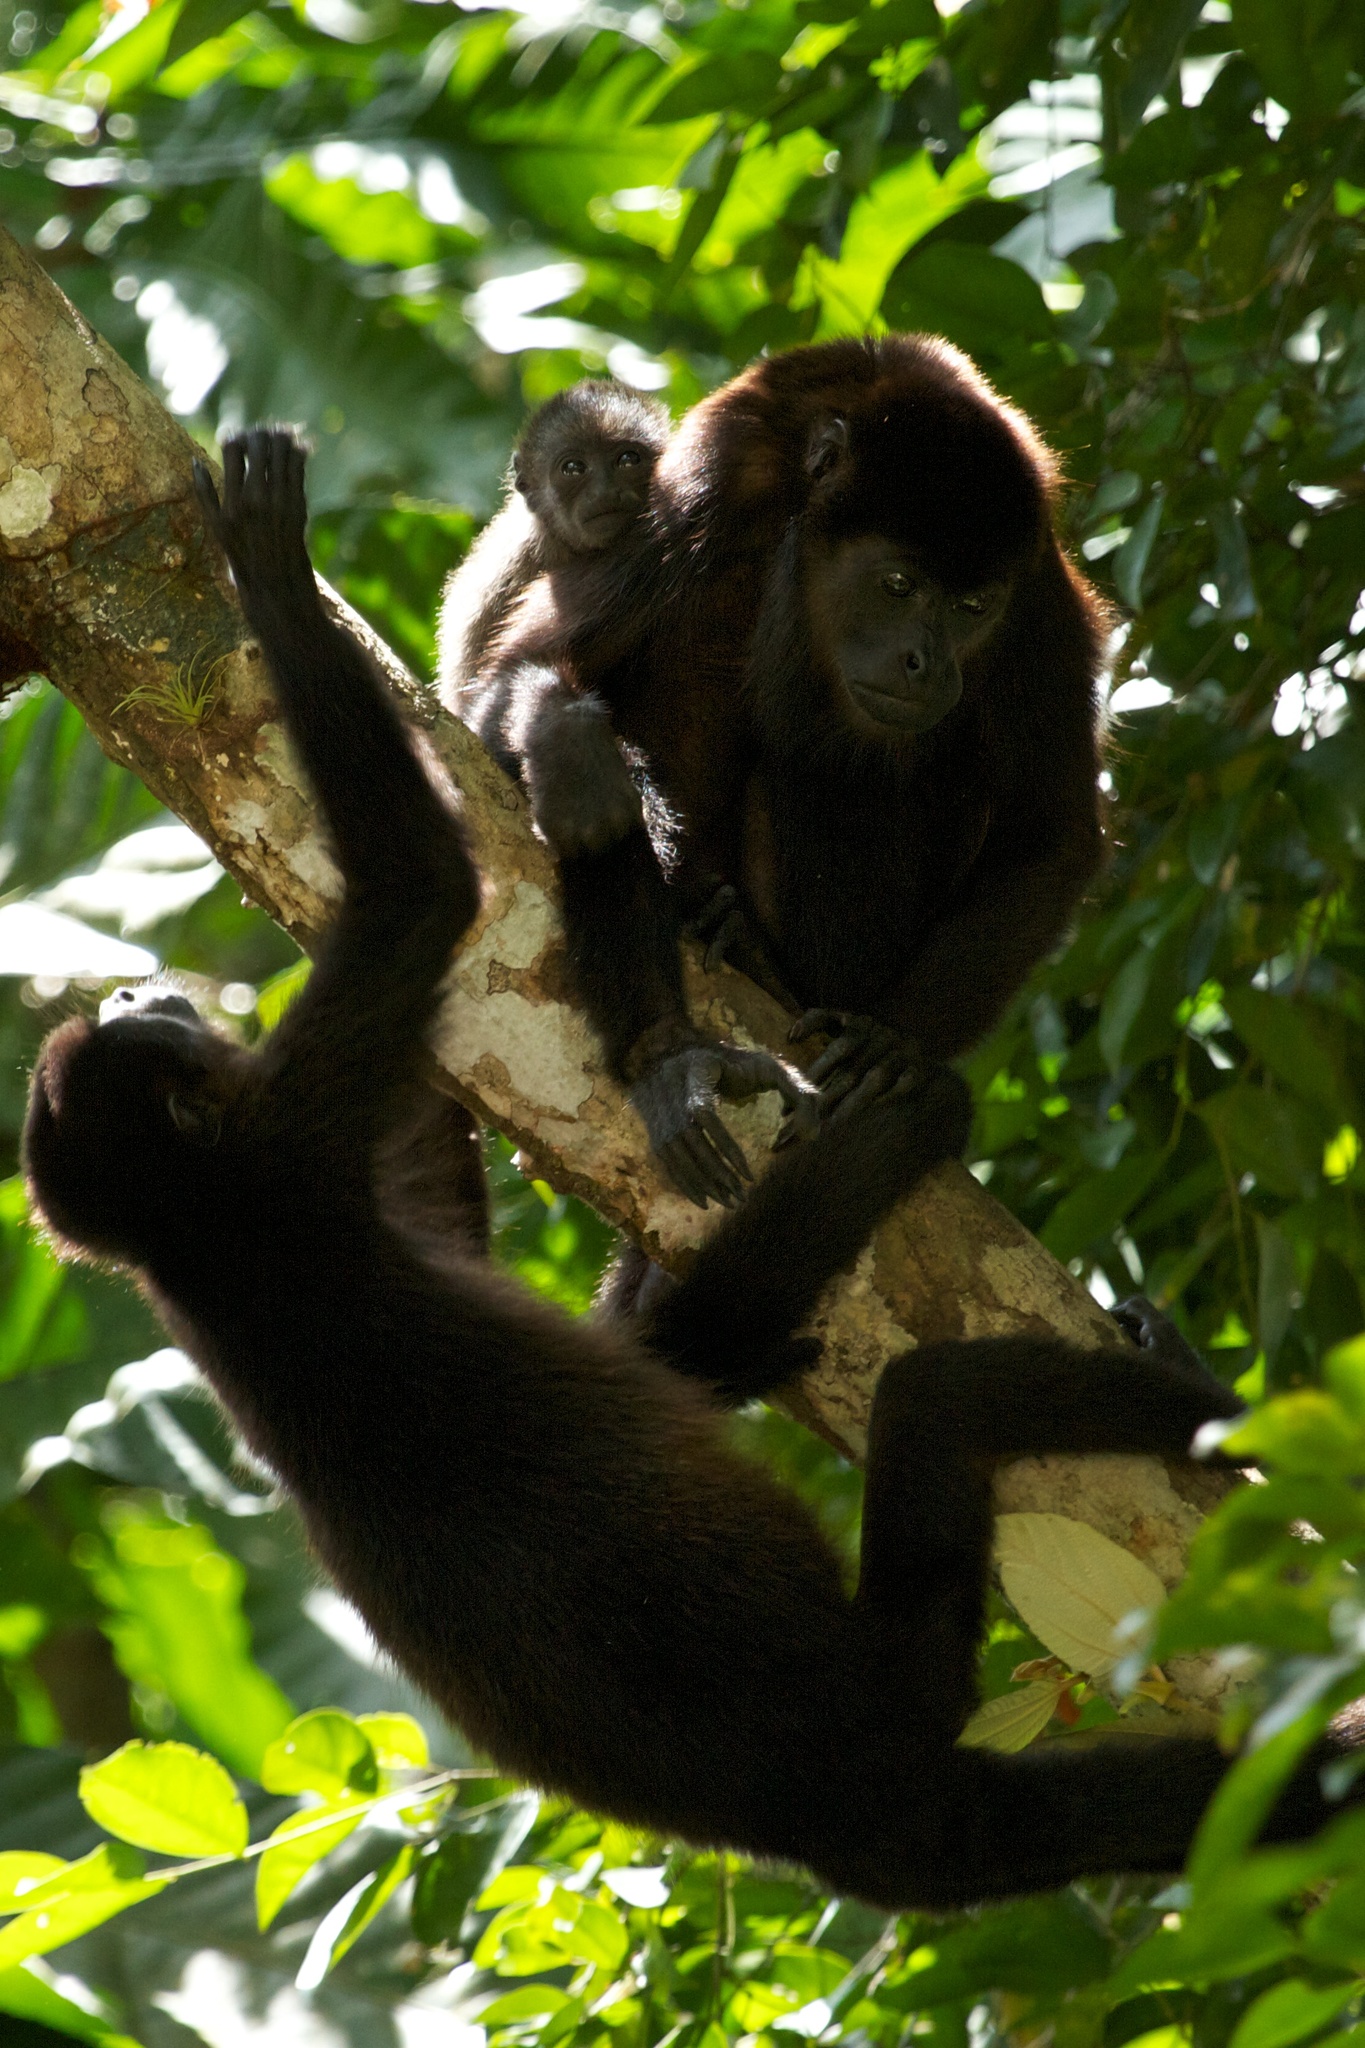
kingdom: Animalia
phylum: Chordata
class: Mammalia
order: Primates
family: Atelidae
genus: Alouatta
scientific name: Alouatta palliata
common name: Mantled howler
